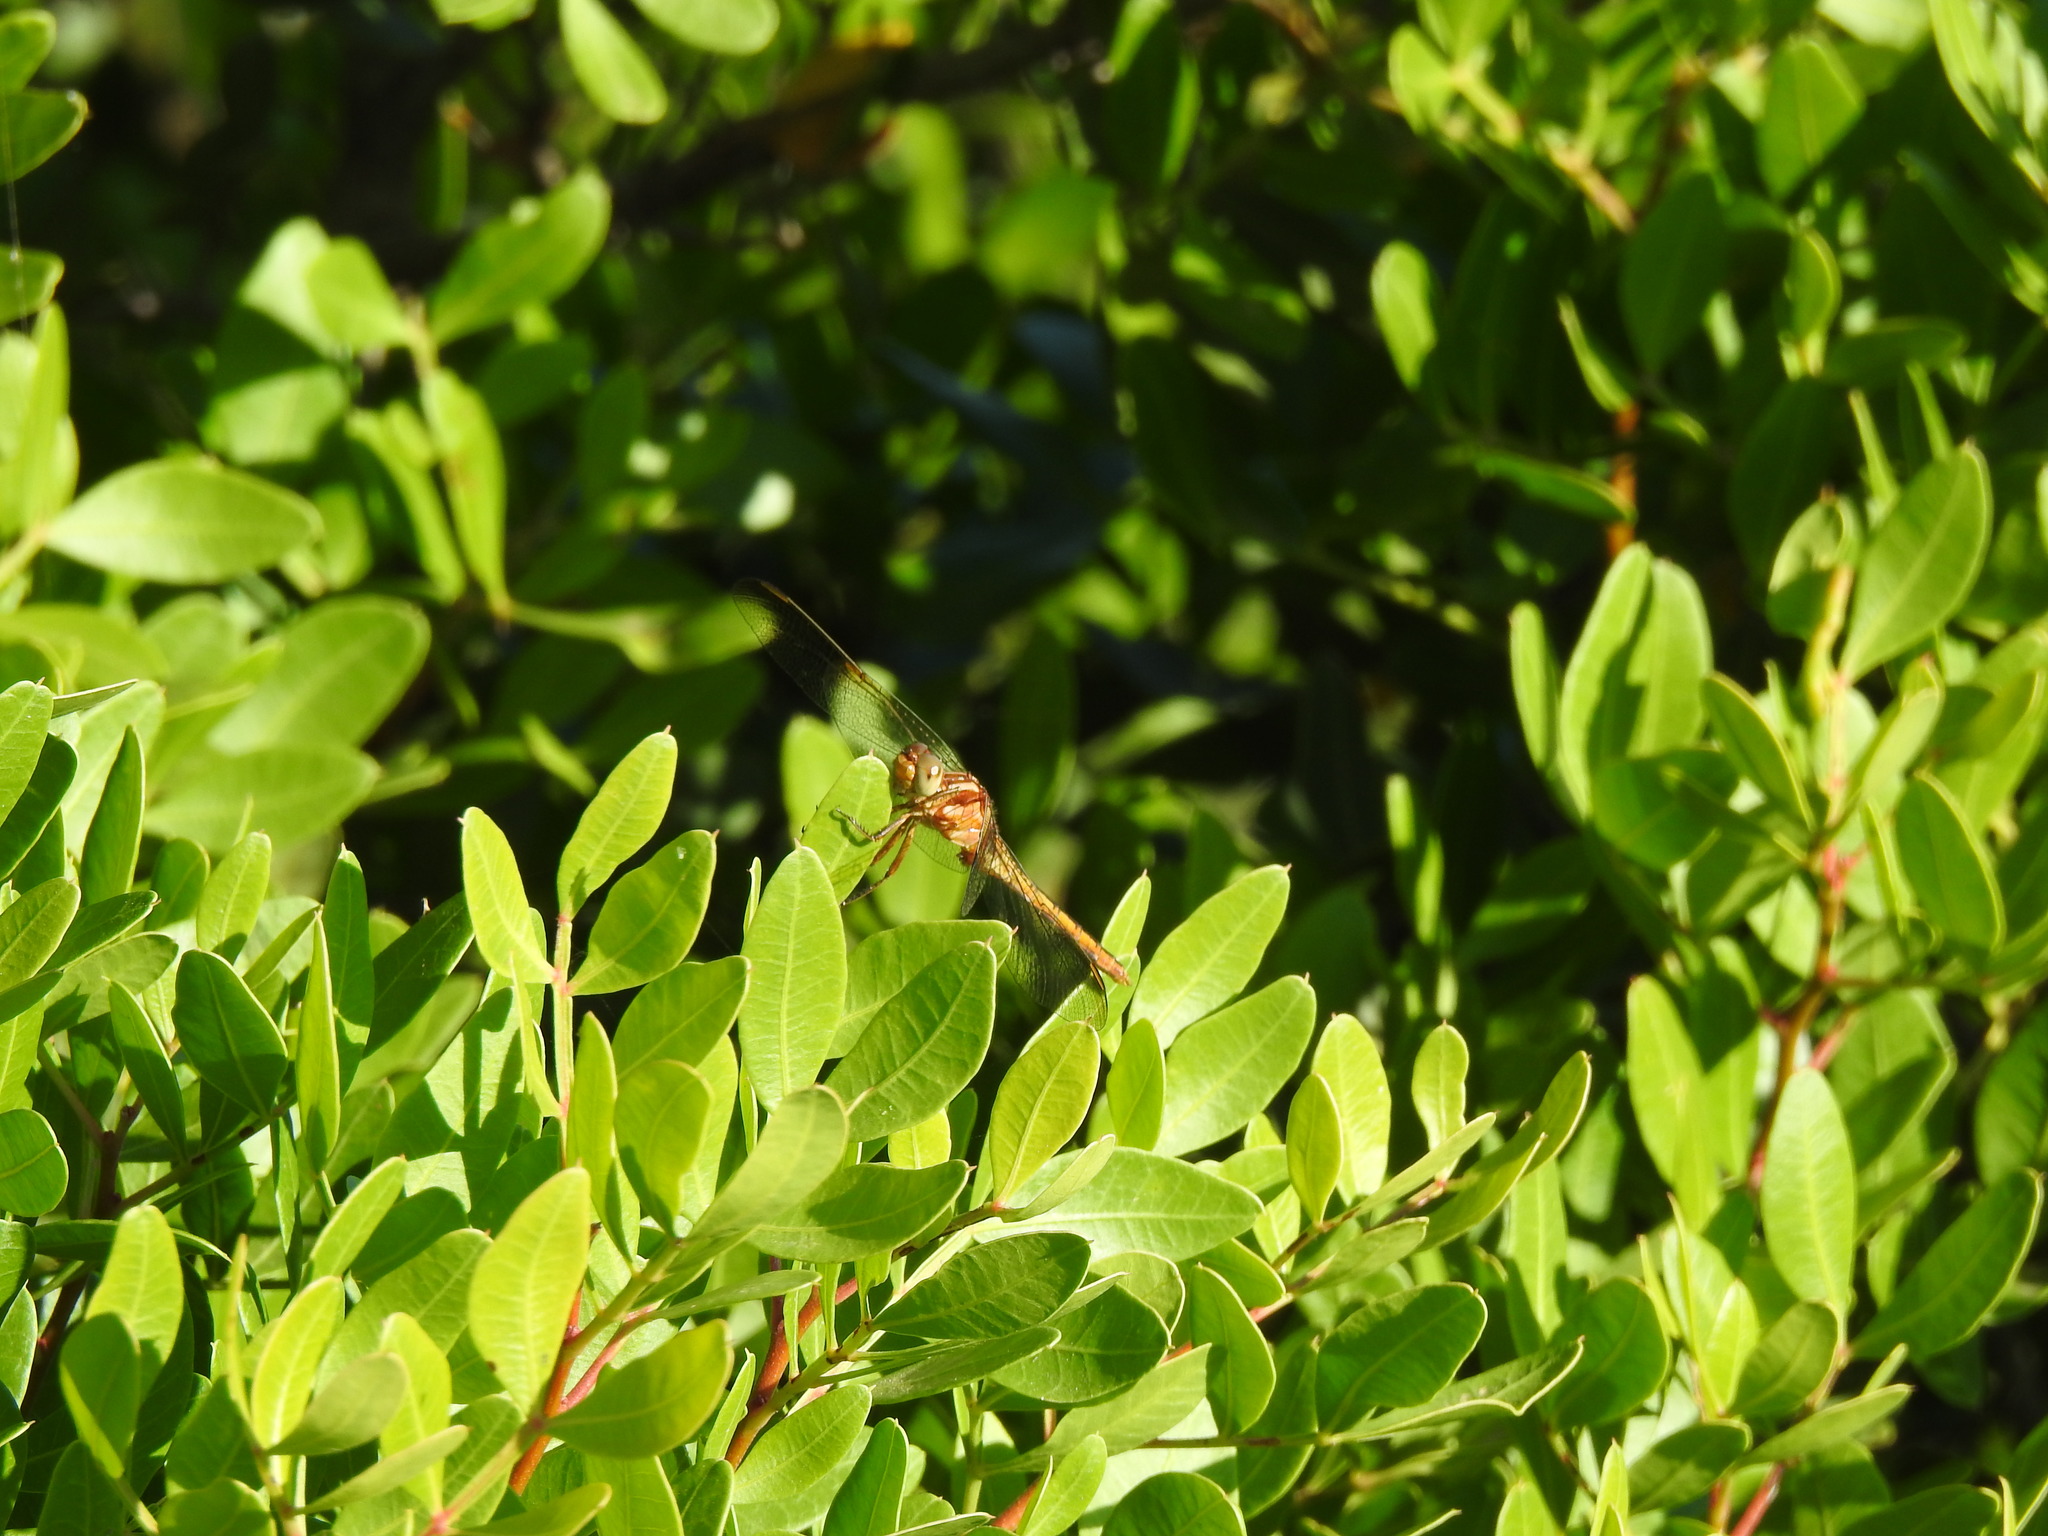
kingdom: Animalia
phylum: Arthropoda
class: Insecta
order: Odonata
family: Libellulidae
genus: Orthetrum
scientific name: Orthetrum coerulescens
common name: Keeled skimmer
